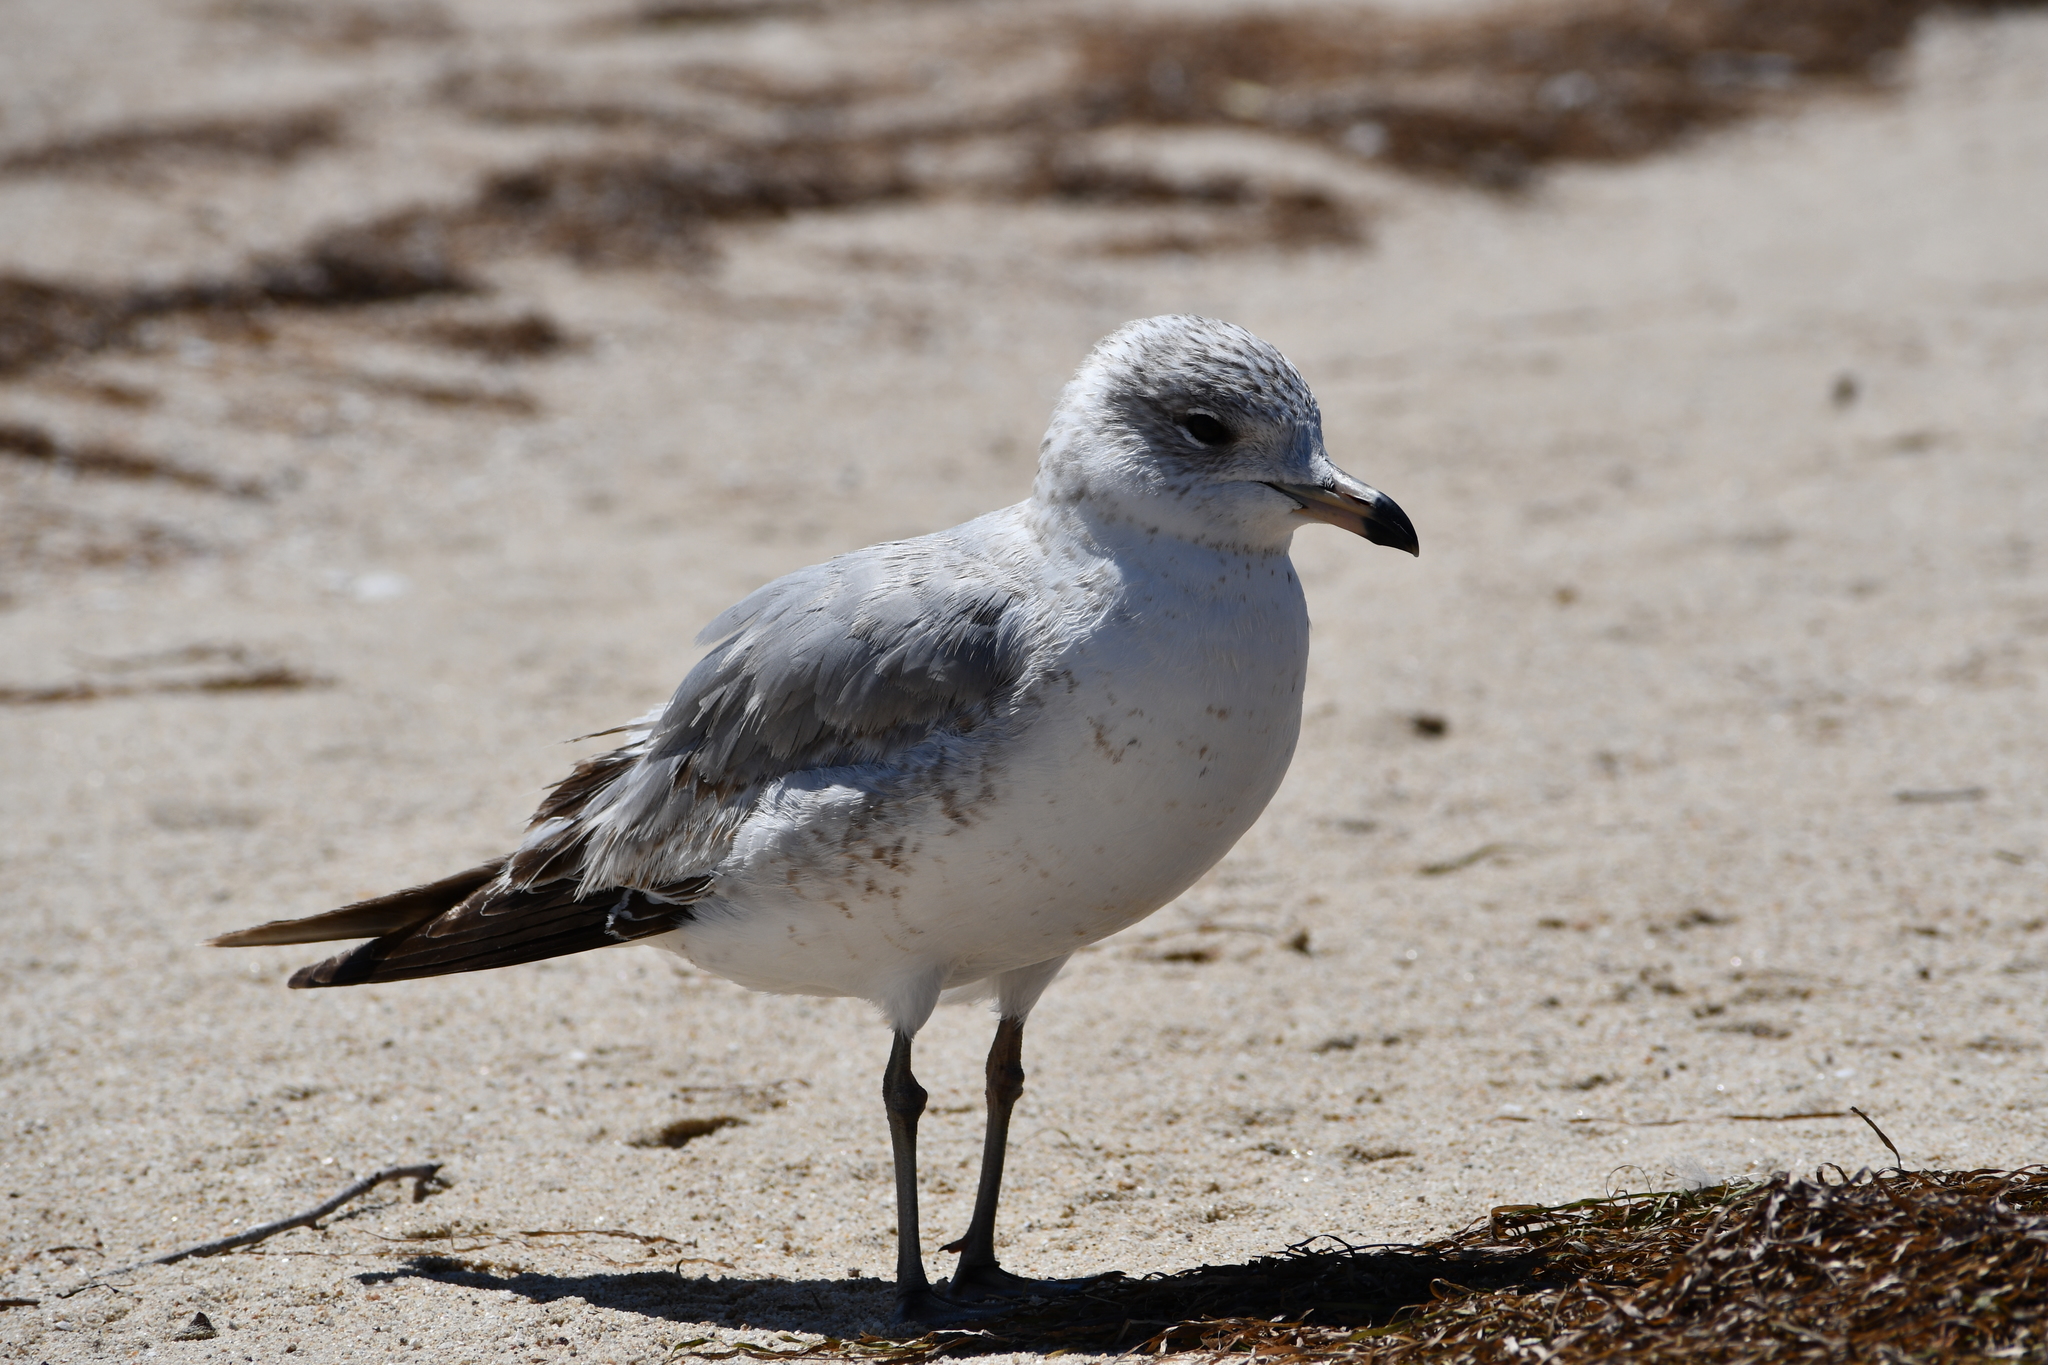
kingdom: Animalia
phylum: Chordata
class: Aves
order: Charadriiformes
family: Laridae
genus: Larus
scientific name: Larus delawarensis
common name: Ring-billed gull
